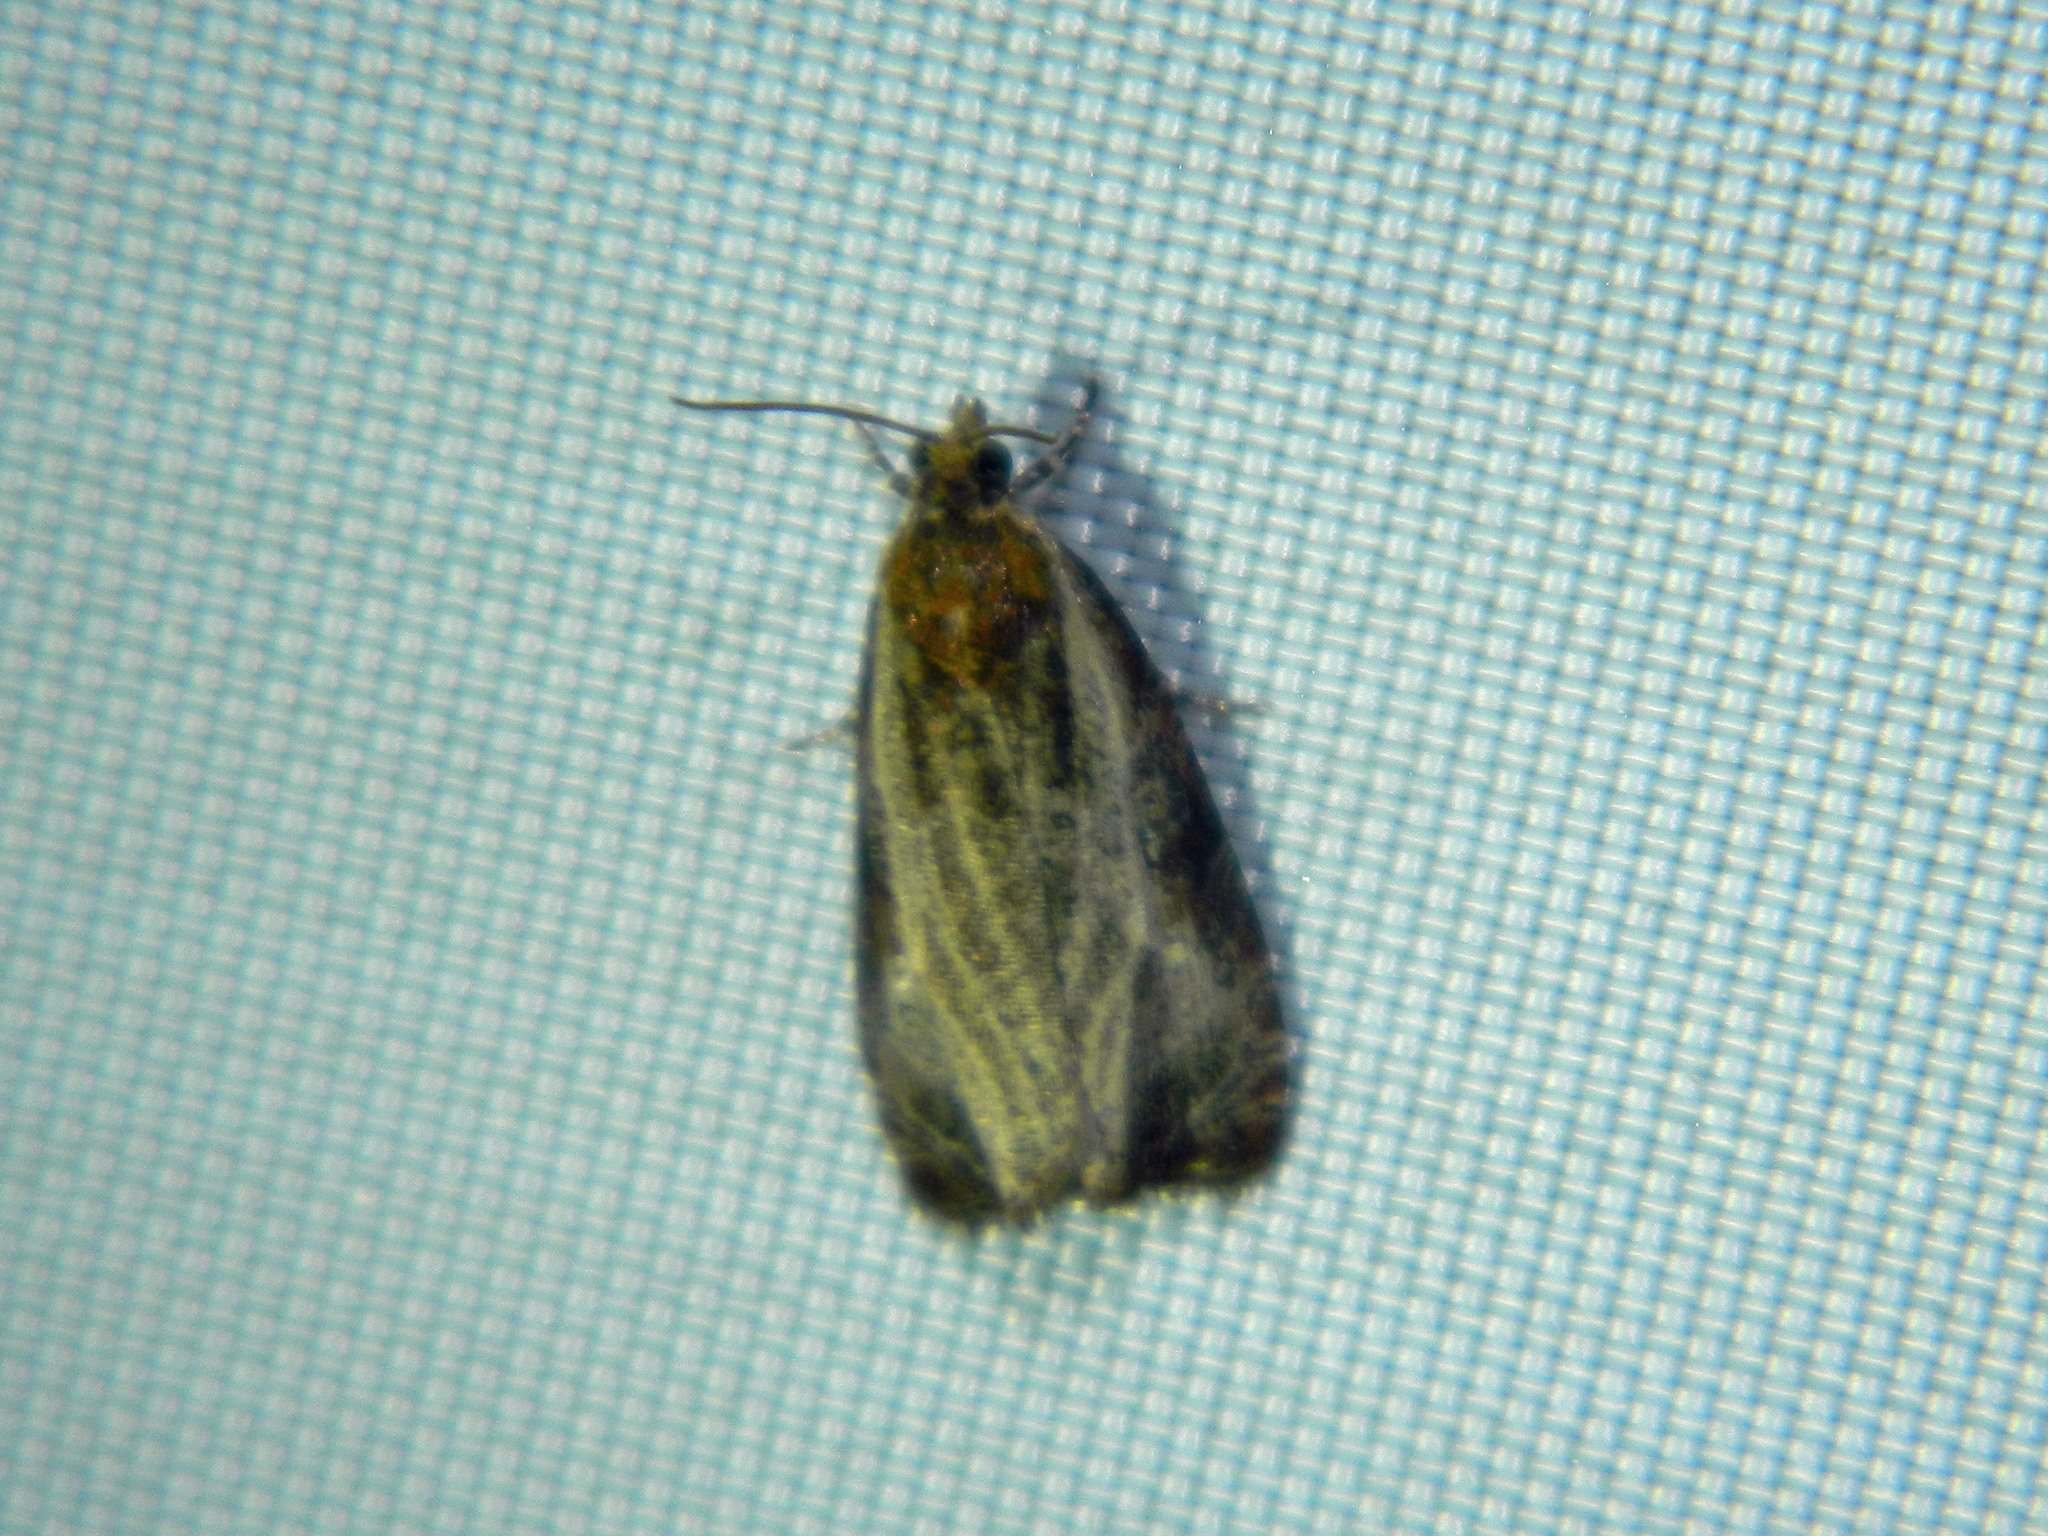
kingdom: Animalia
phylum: Arthropoda
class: Insecta
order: Lepidoptera
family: Tortricidae
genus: Olethreutes
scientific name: Olethreutes quadrifidum
